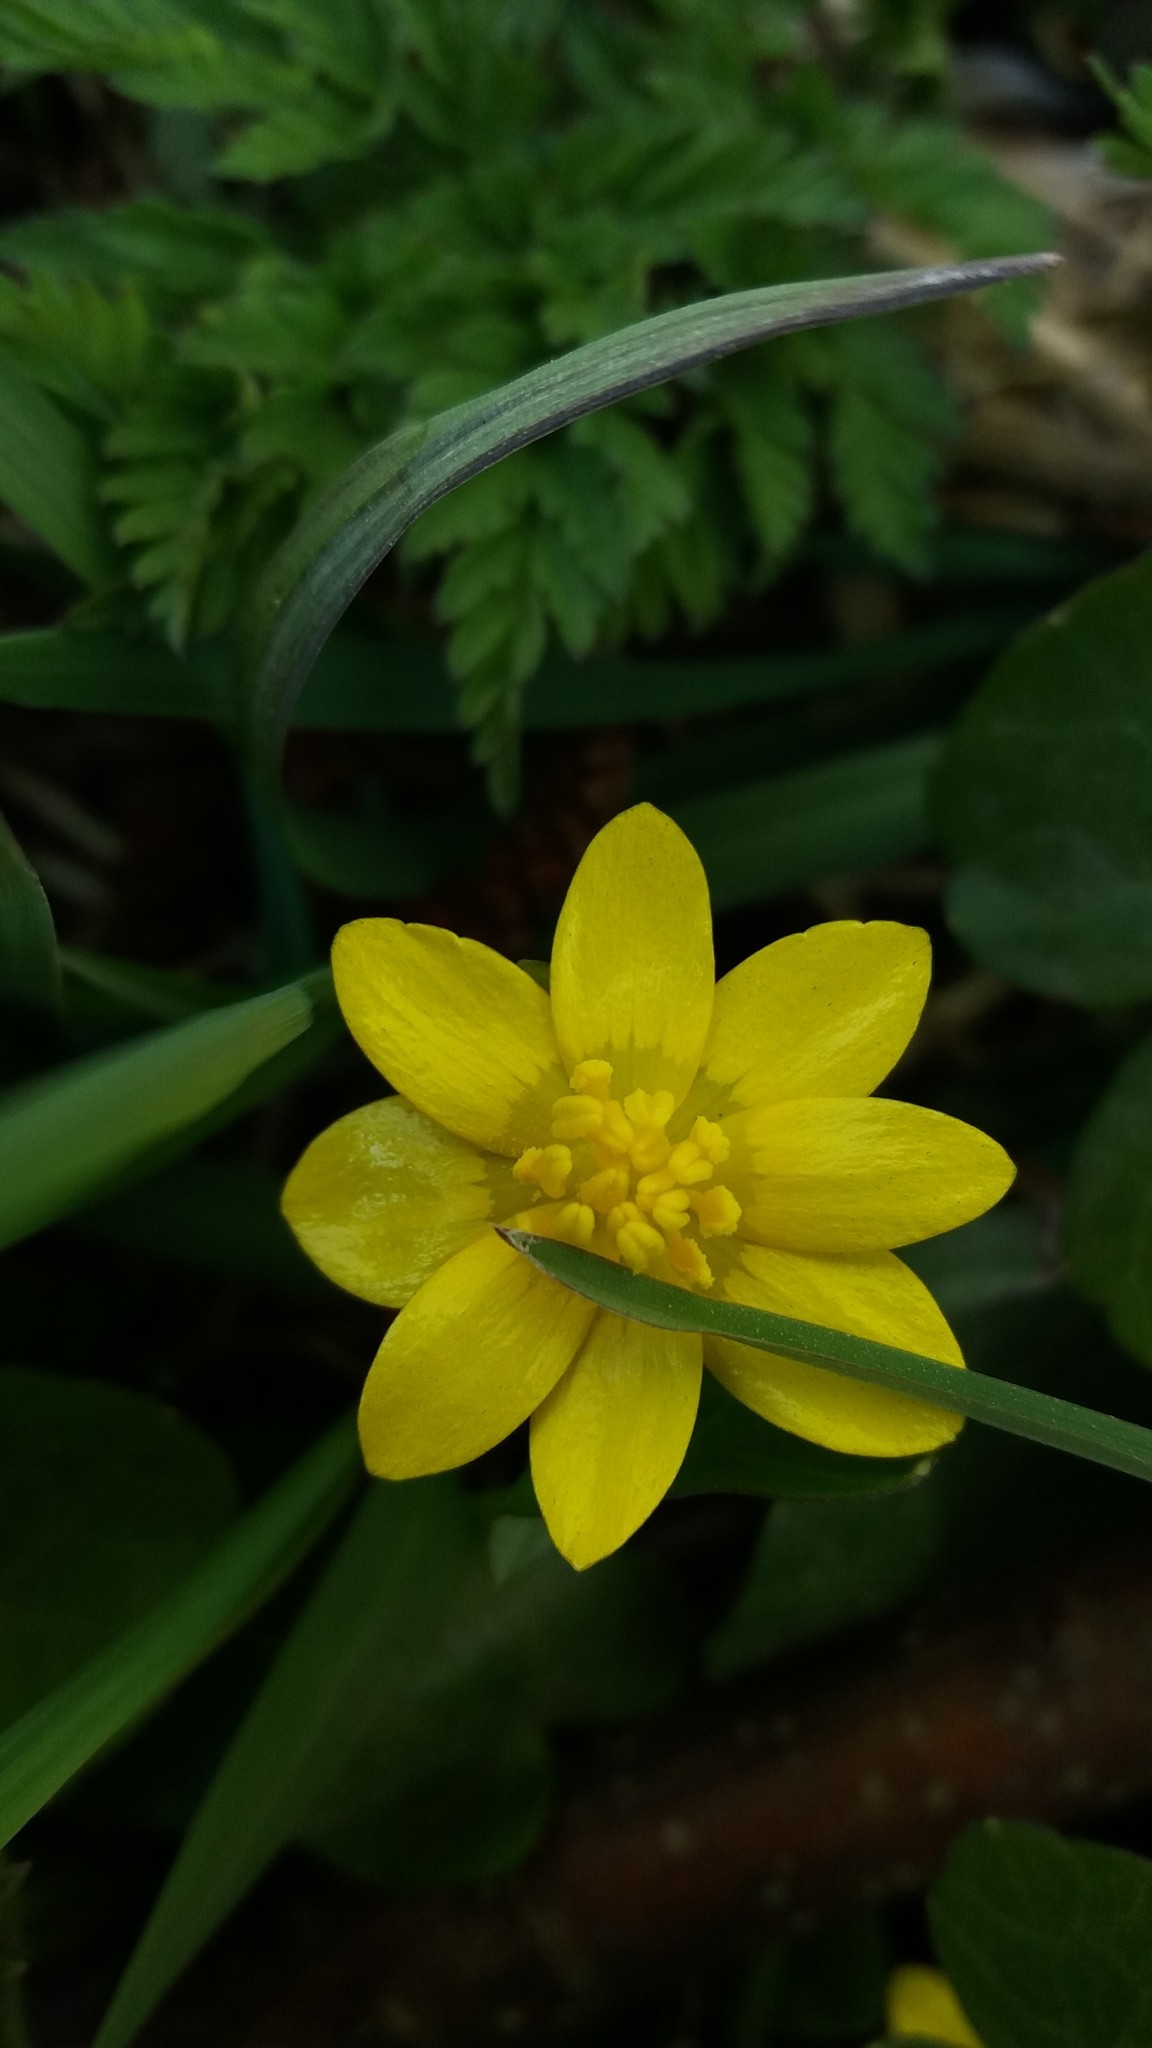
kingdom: Plantae
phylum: Tracheophyta
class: Magnoliopsida
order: Ranunculales
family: Ranunculaceae
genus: Ficaria
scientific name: Ficaria verna
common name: Lesser celandine
